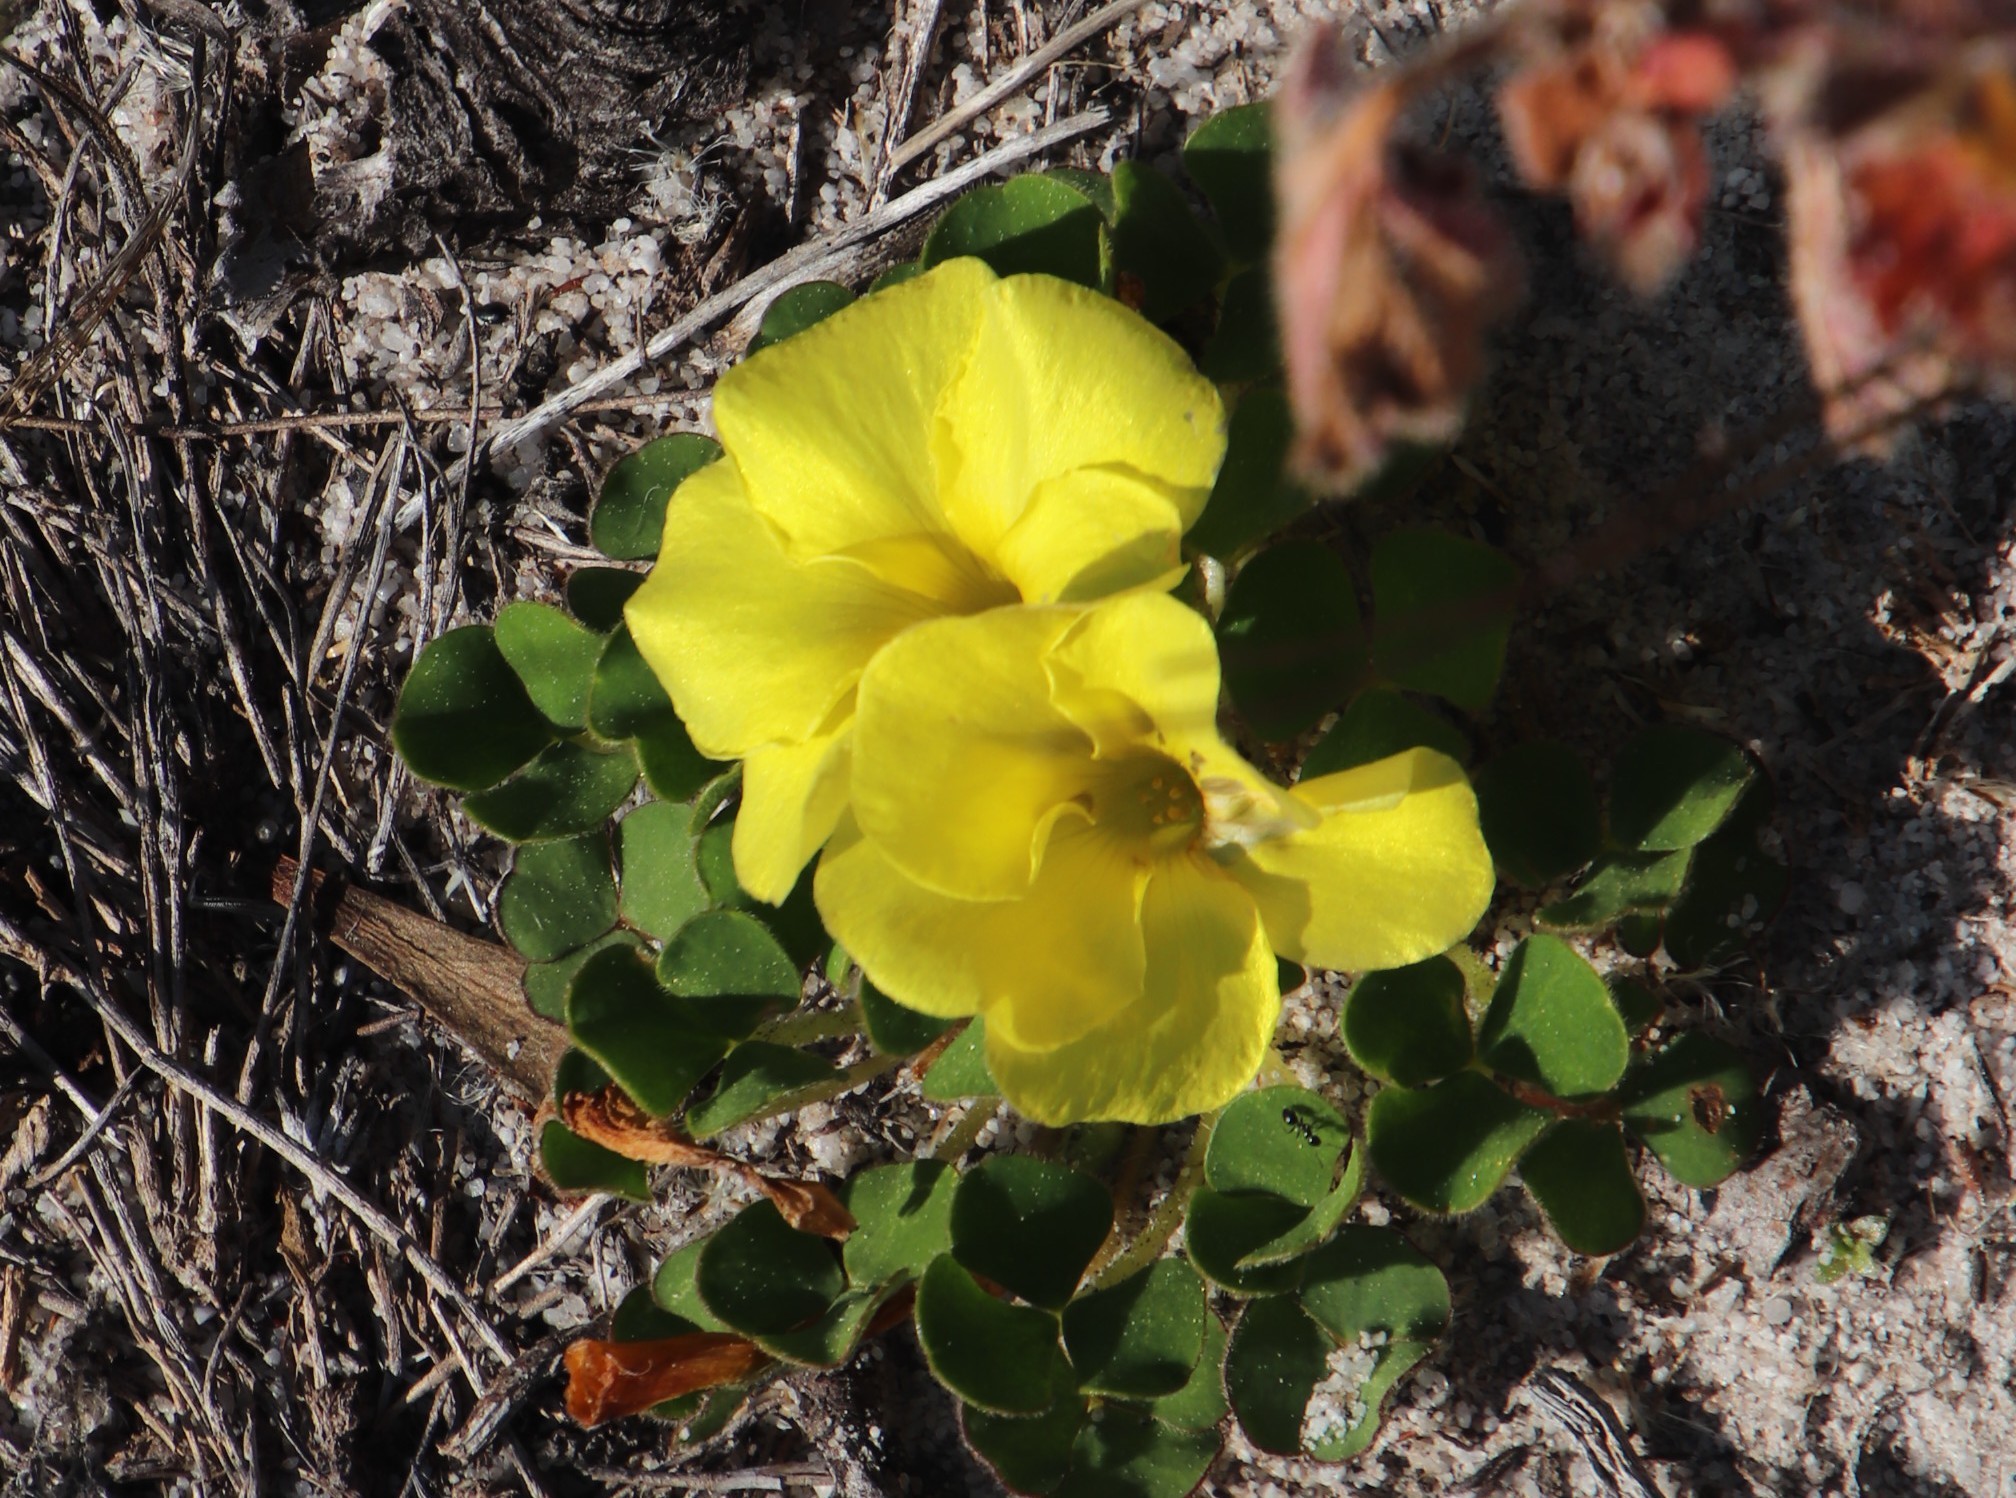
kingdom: Plantae
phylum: Tracheophyta
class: Magnoliopsida
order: Oxalidales
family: Oxalidaceae
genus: Oxalis
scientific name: Oxalis luteola
